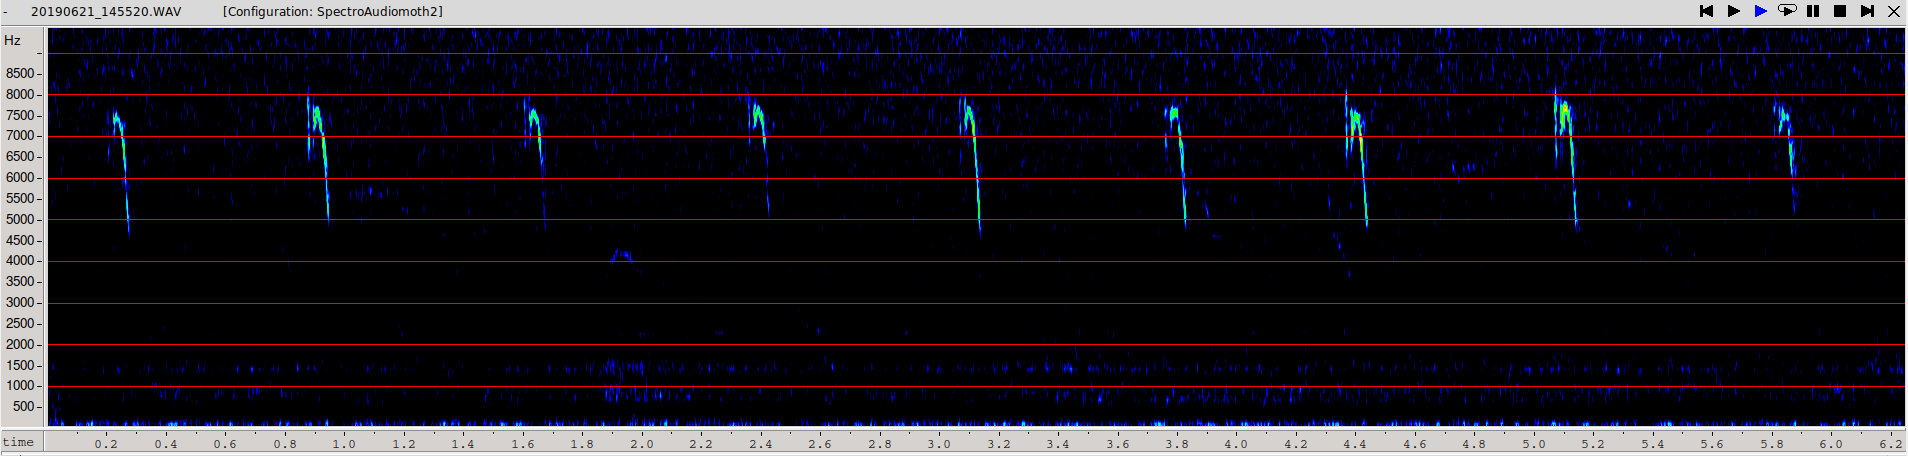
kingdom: Animalia
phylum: Chordata
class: Aves
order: Passeriformes
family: Cisticolidae
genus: Cisticola
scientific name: Cisticola juncidis
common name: Zitting cisticola
